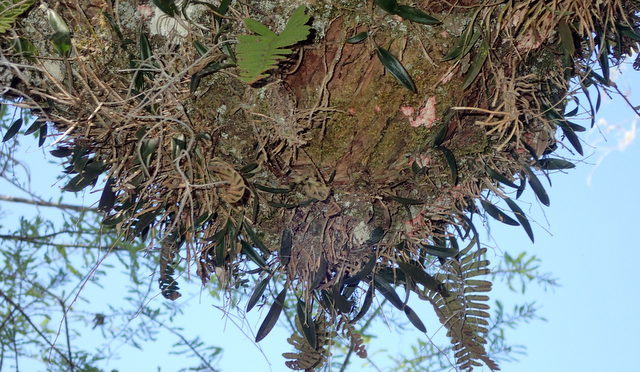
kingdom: Plantae
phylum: Tracheophyta
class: Liliopsida
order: Asparagales
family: Orchidaceae
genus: Epidendrum
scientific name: Epidendrum conopseum
